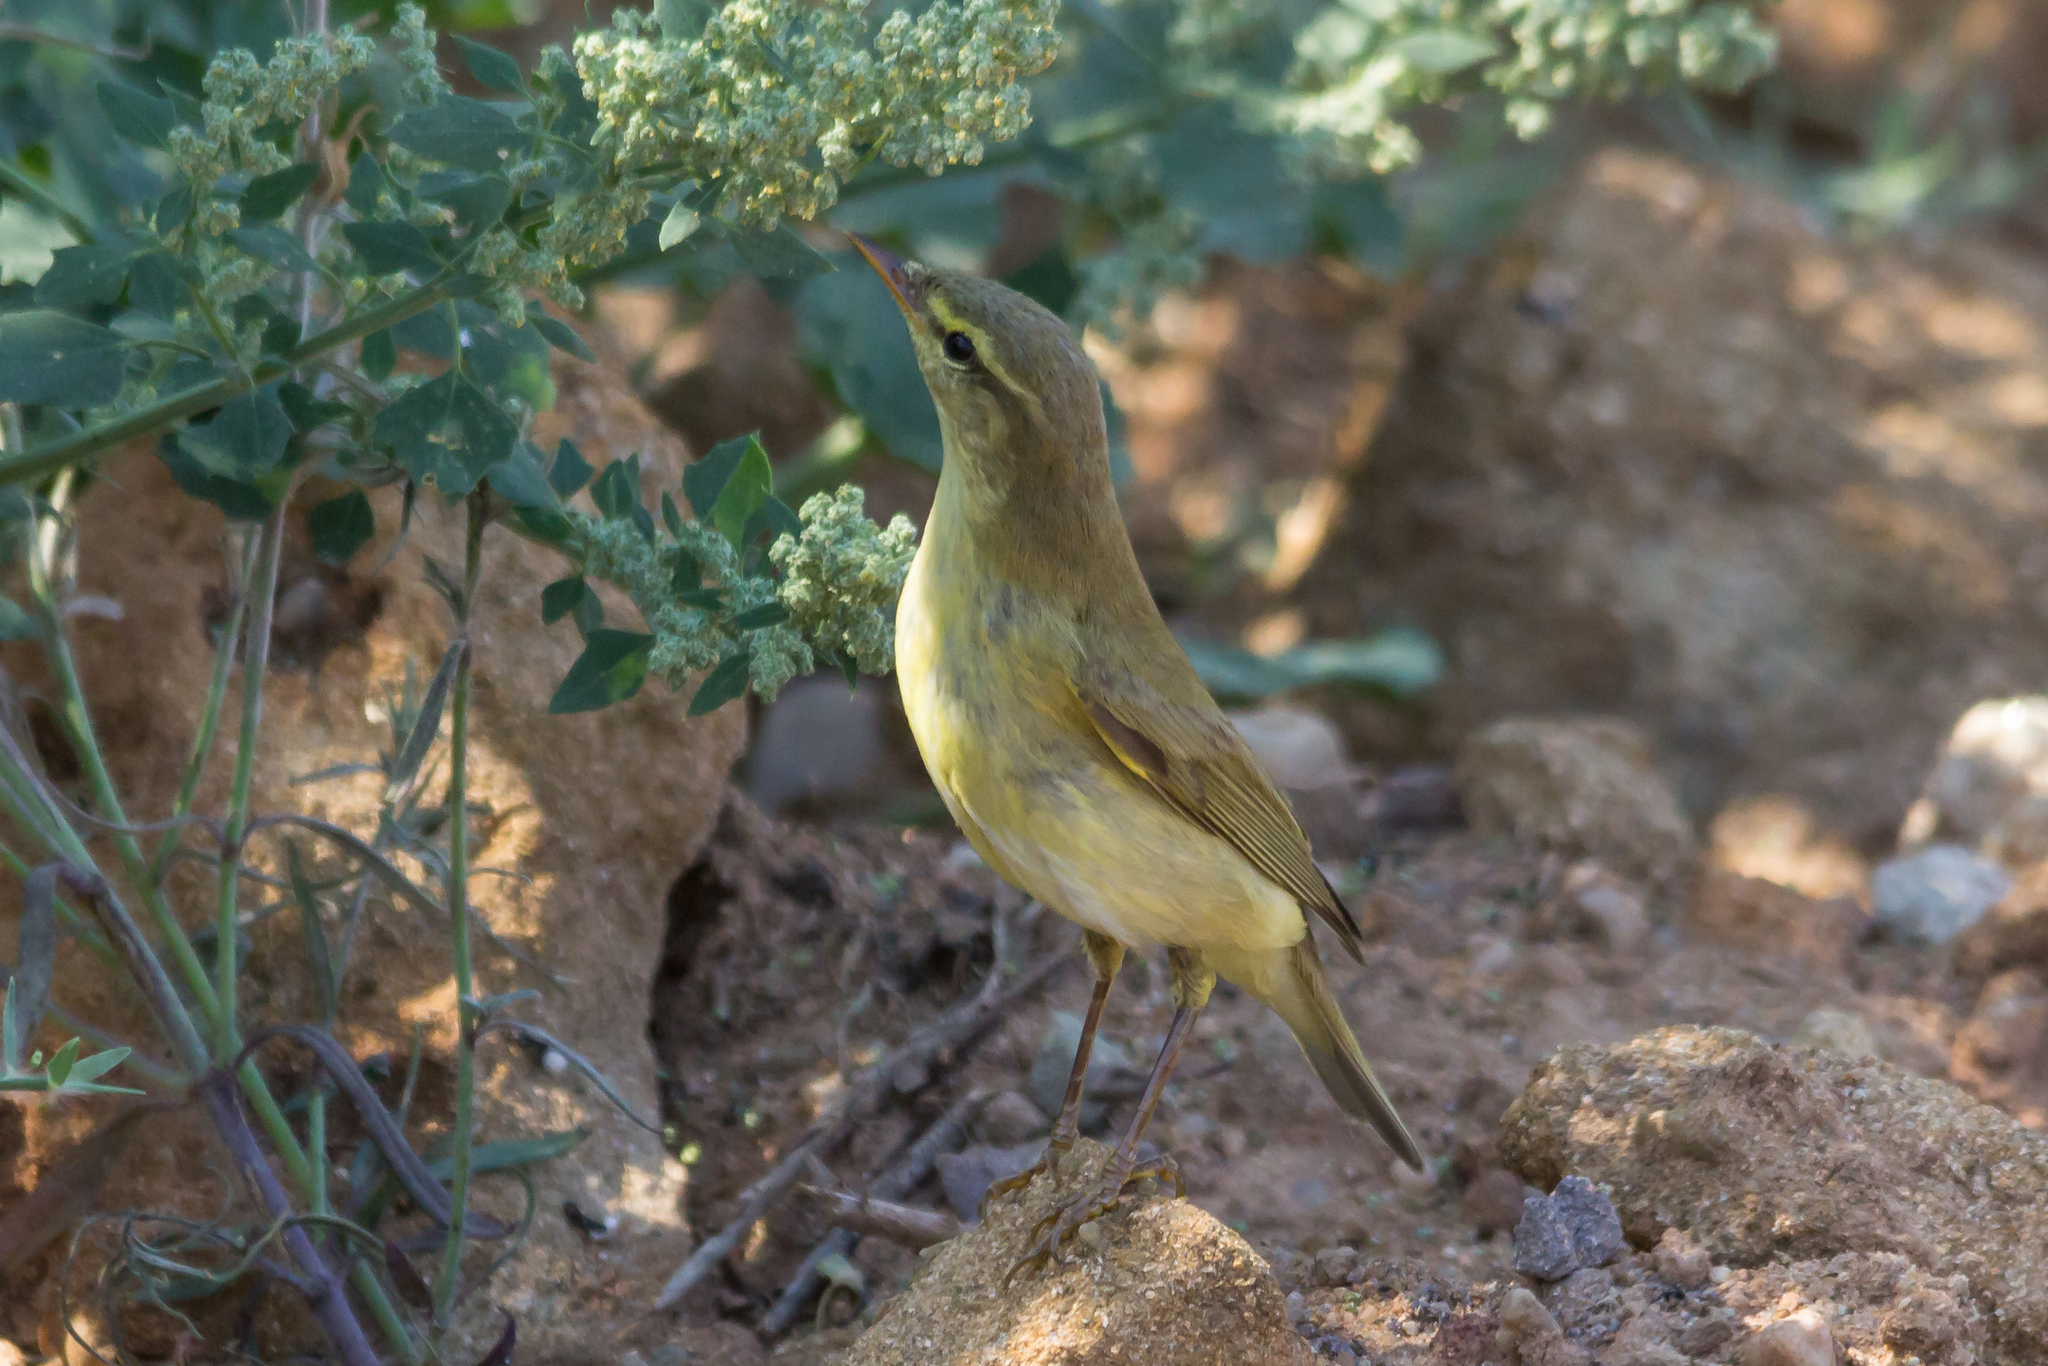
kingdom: Animalia
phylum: Chordata
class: Aves
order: Passeriformes
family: Phylloscopidae
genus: Phylloscopus
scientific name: Phylloscopus trochilus
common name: Willow warbler
